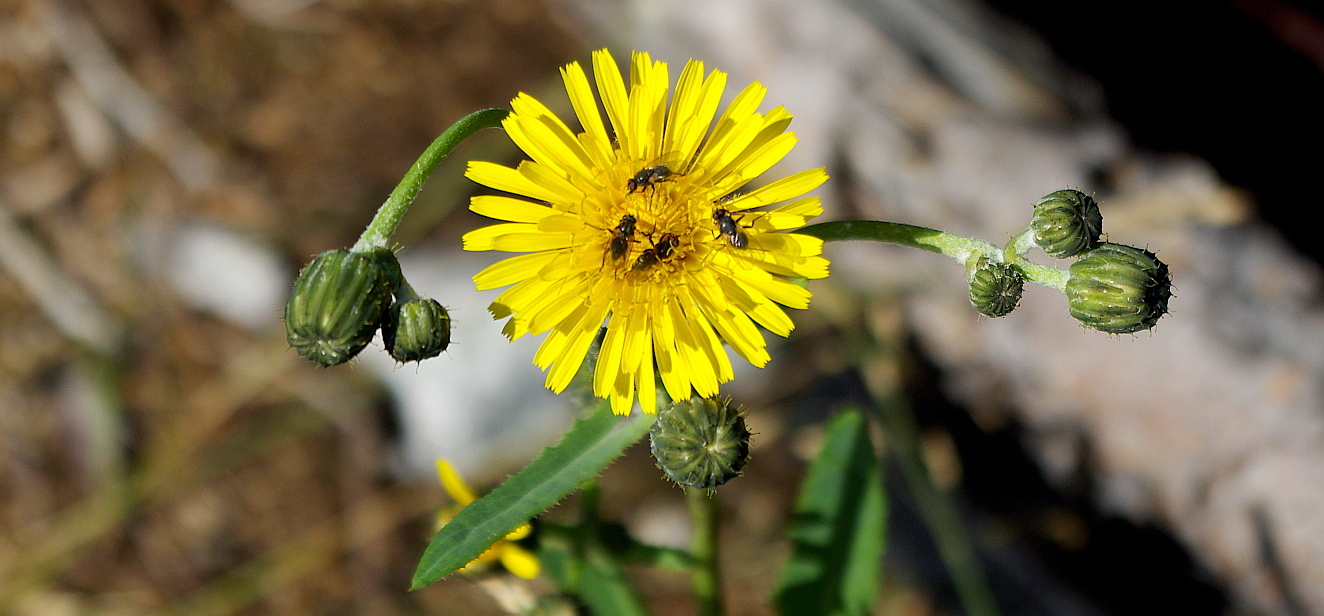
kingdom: Plantae
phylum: Tracheophyta
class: Magnoliopsida
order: Asterales
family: Asteraceae
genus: Sonchus
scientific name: Sonchus arvensis
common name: Perennial sow-thistle
